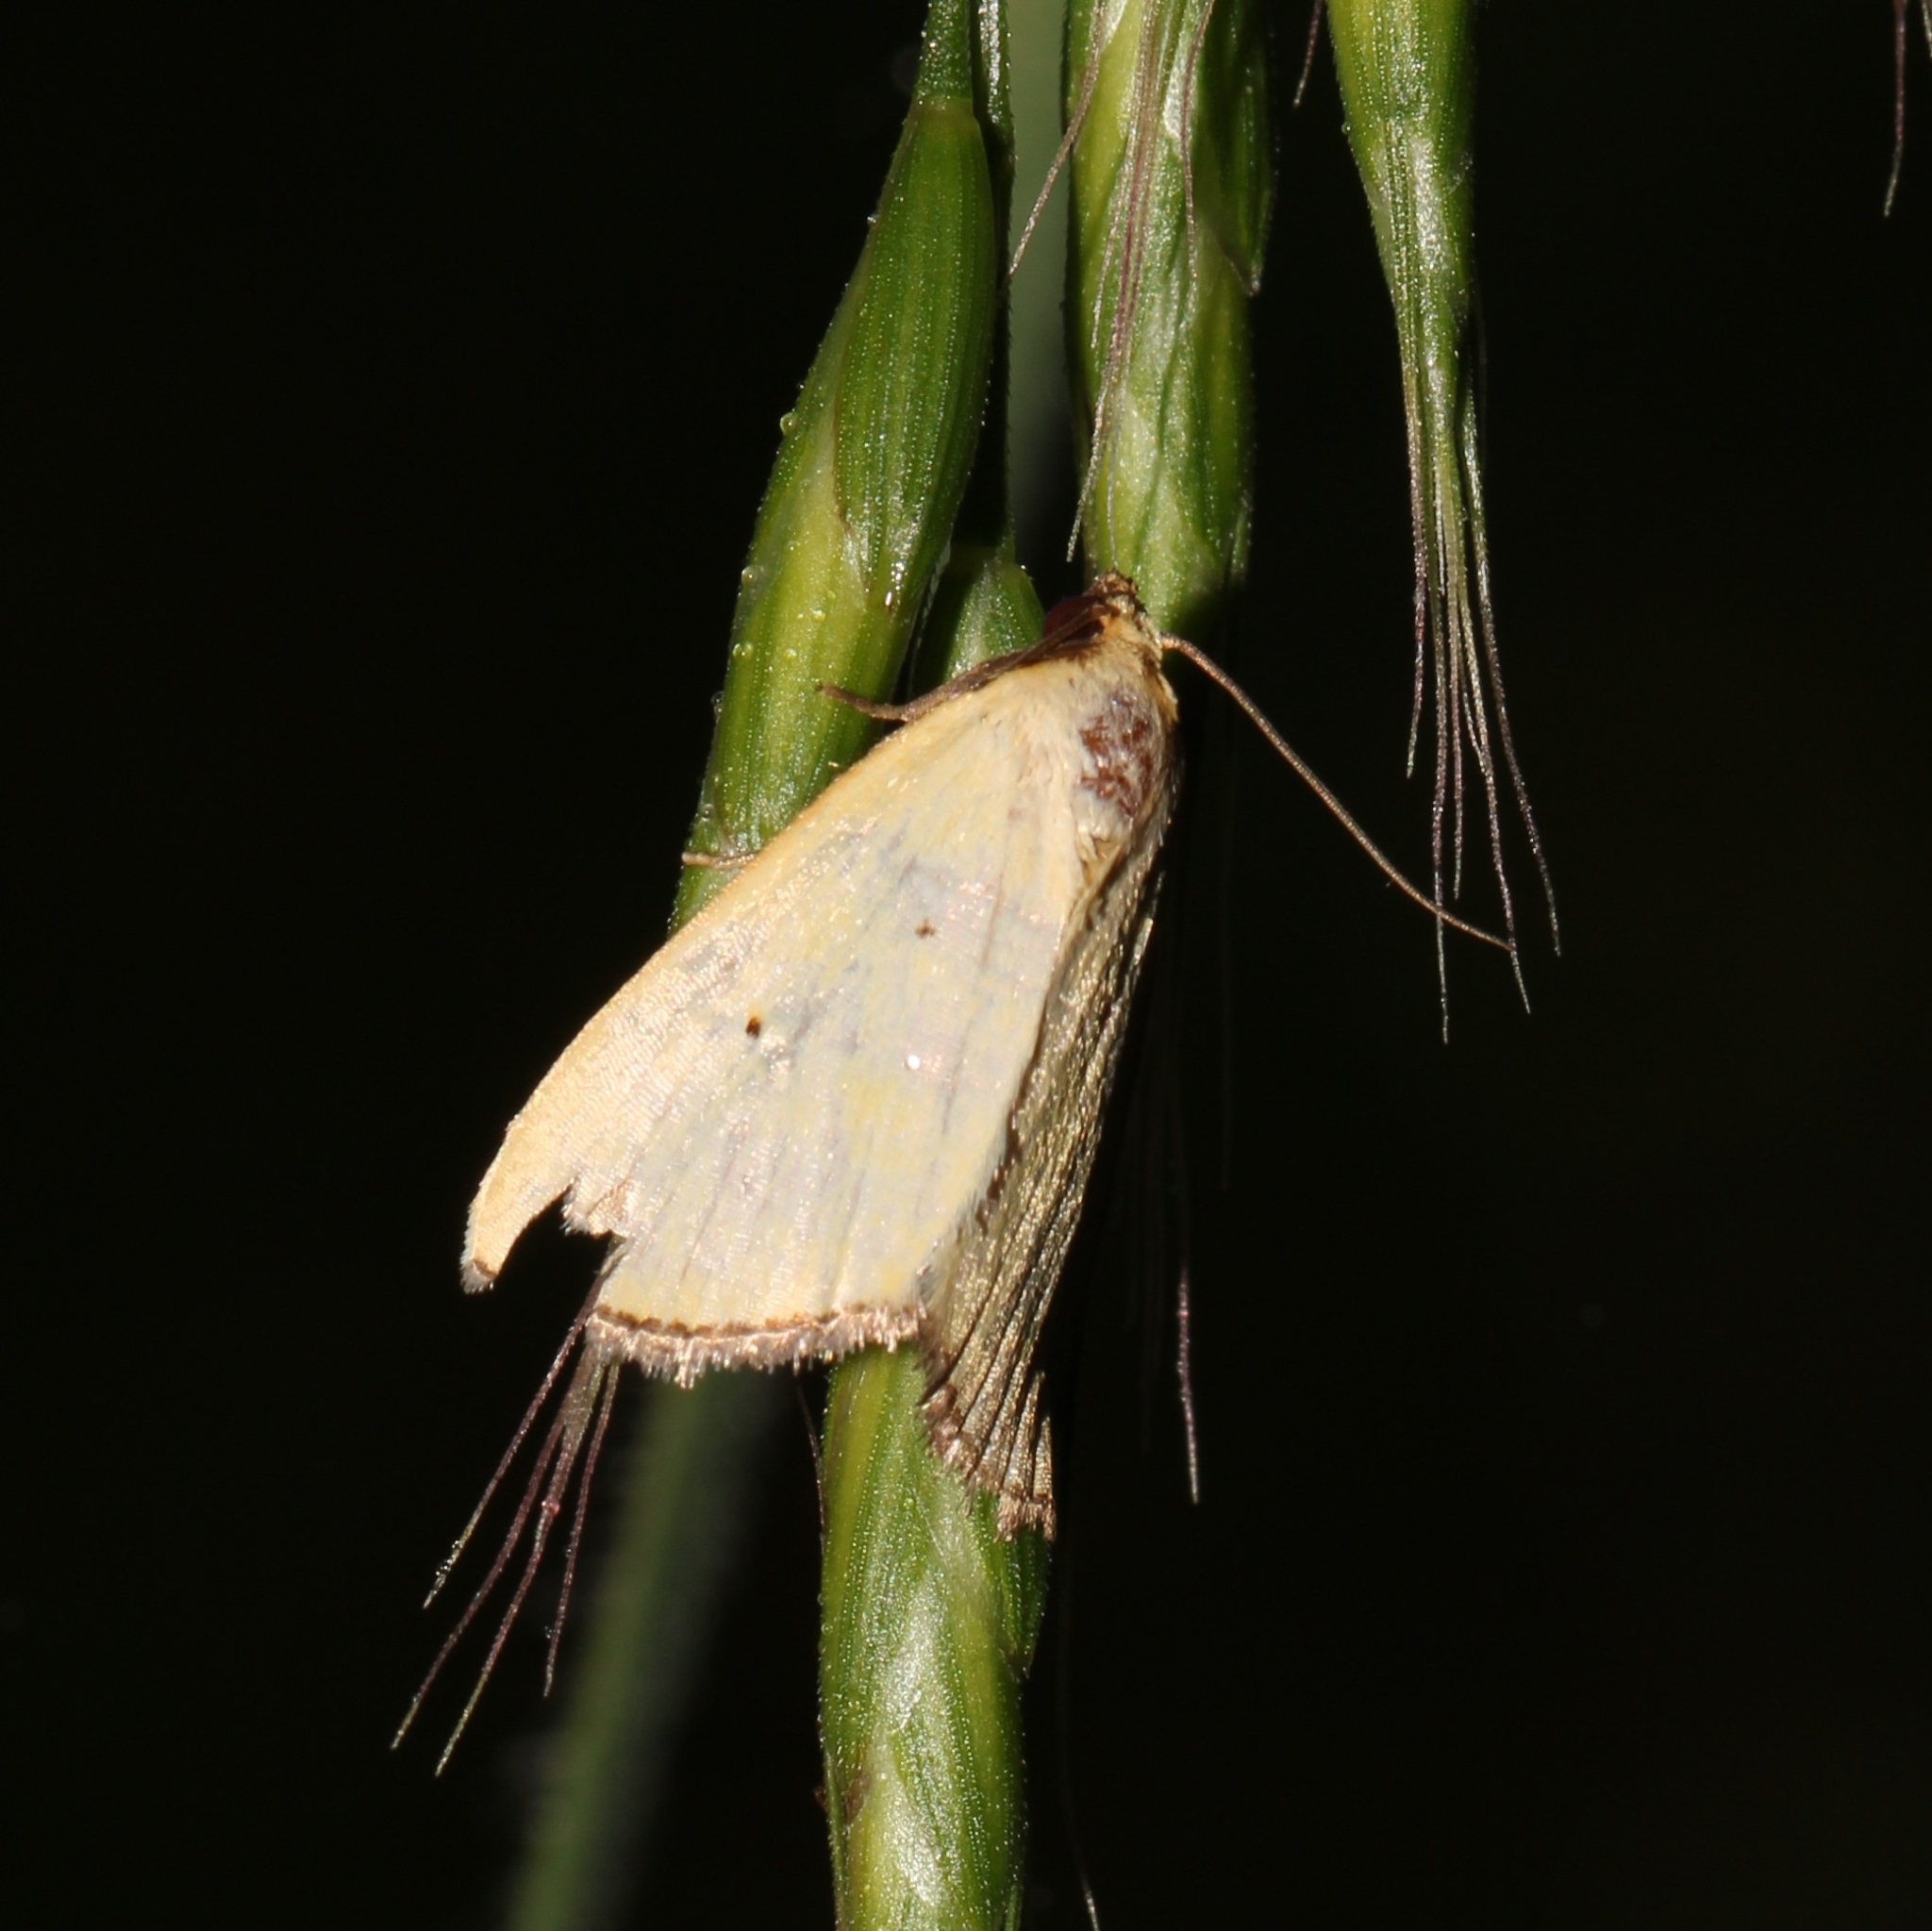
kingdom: Animalia
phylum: Arthropoda
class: Insecta
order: Lepidoptera
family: Noctuidae
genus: Marimatha
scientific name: Marimatha nigrofimbria
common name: Black-bordered lemon moth
